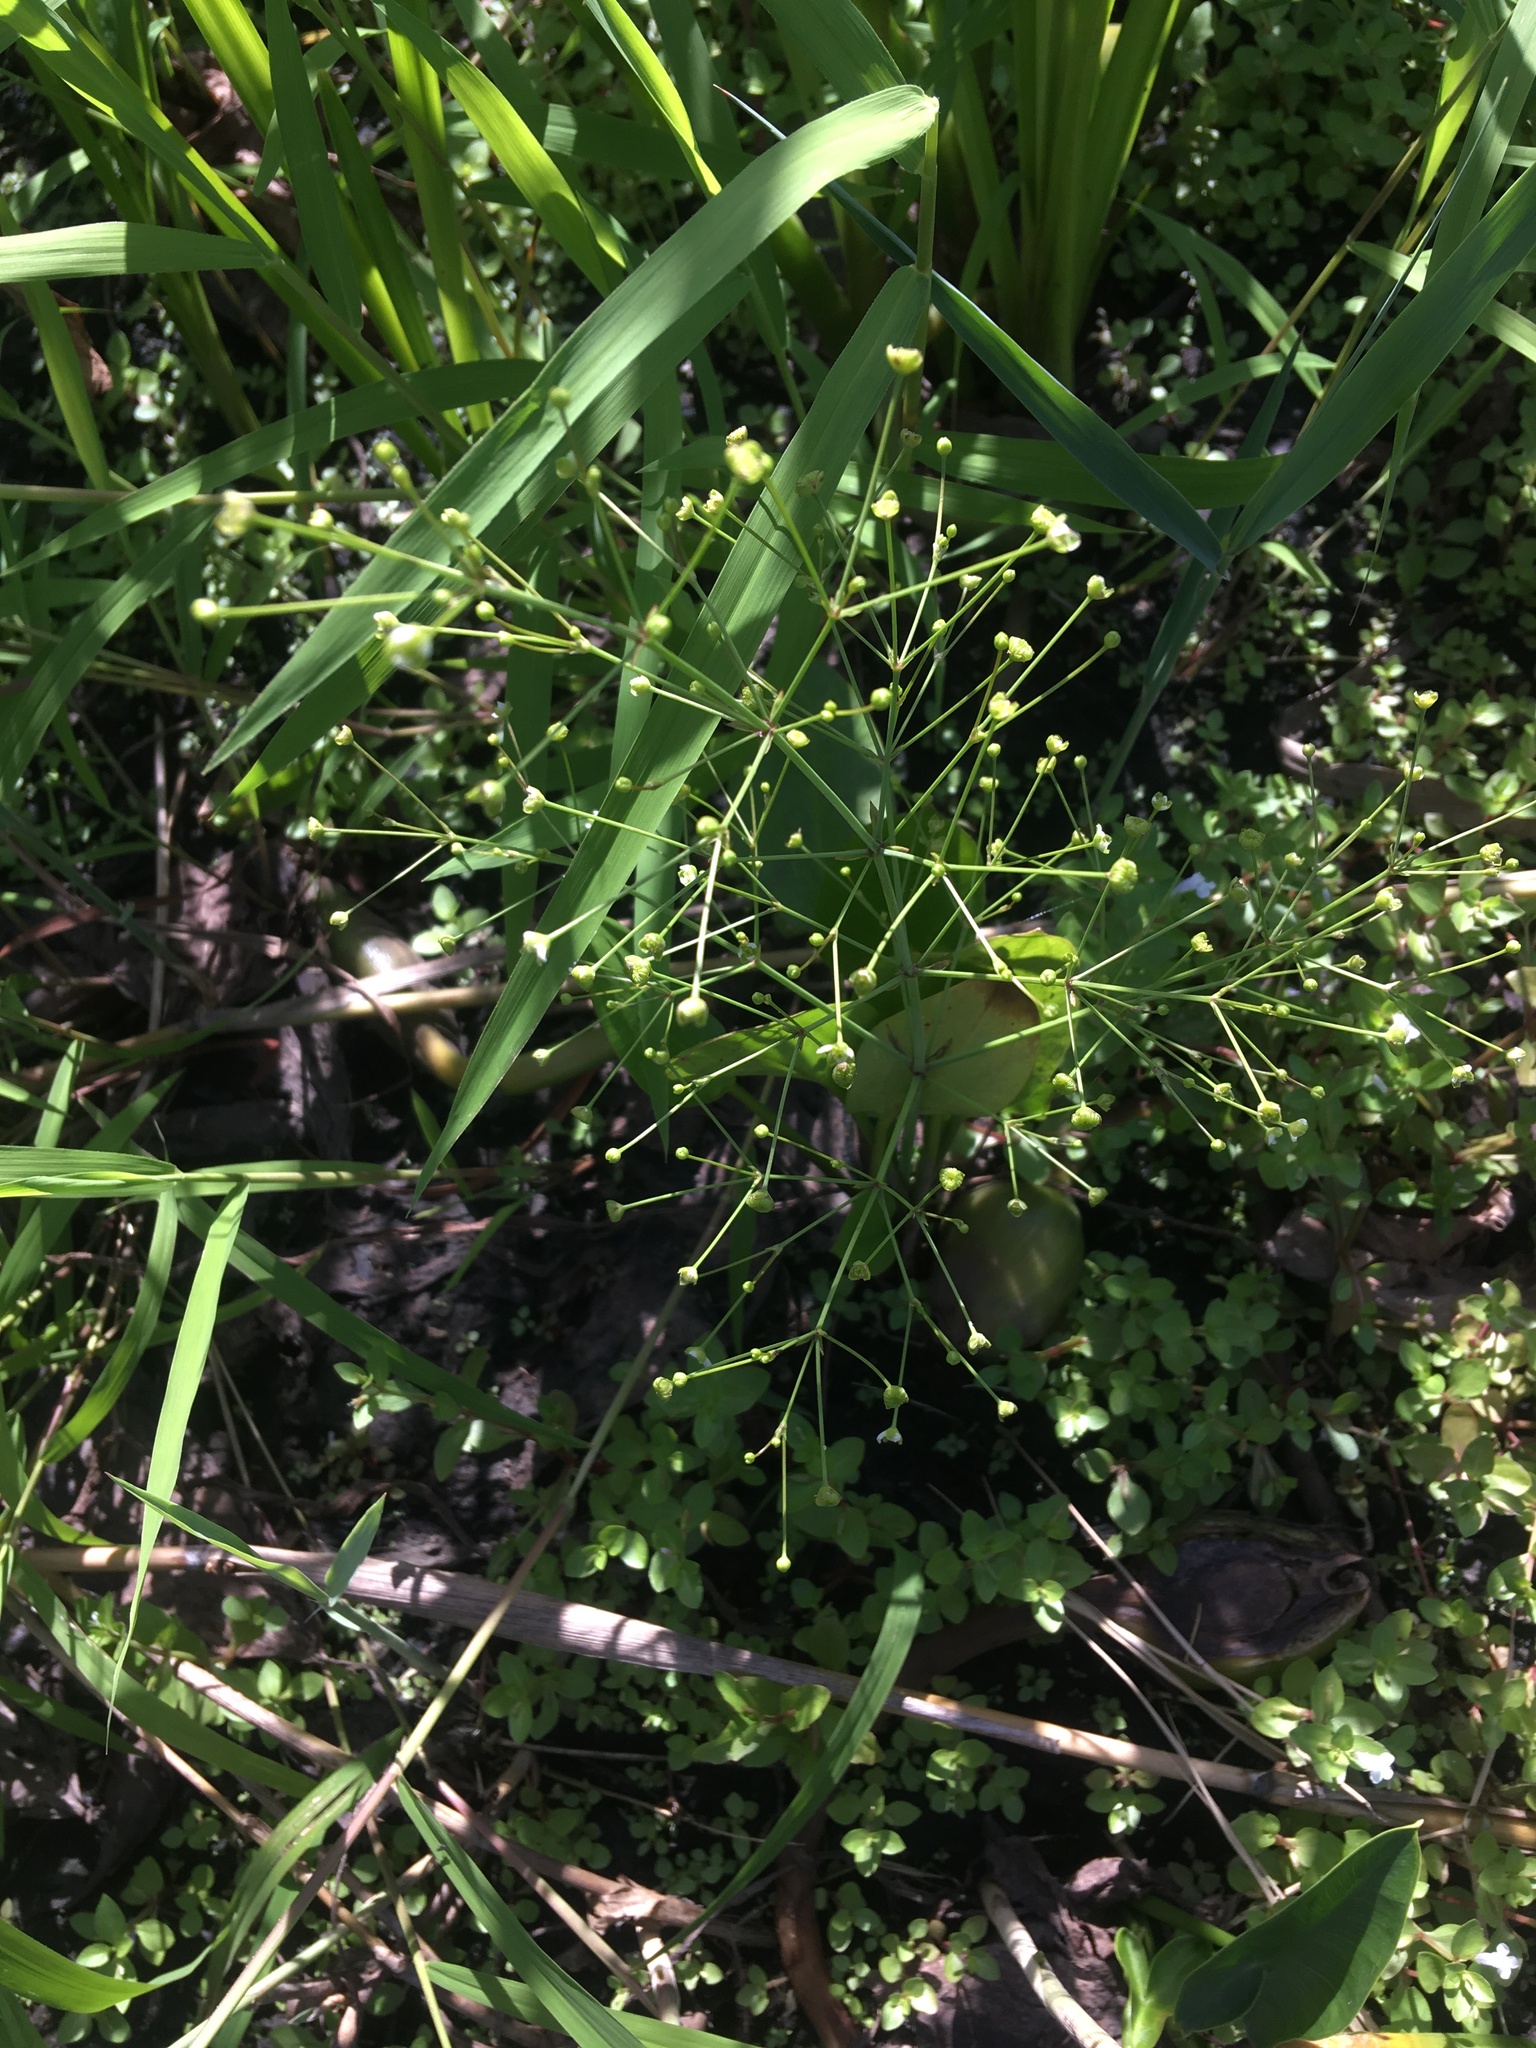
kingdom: Plantae
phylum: Tracheophyta
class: Liliopsida
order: Alismatales
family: Alismataceae
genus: Alisma
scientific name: Alisma subcordatum
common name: Southern water-plantain
